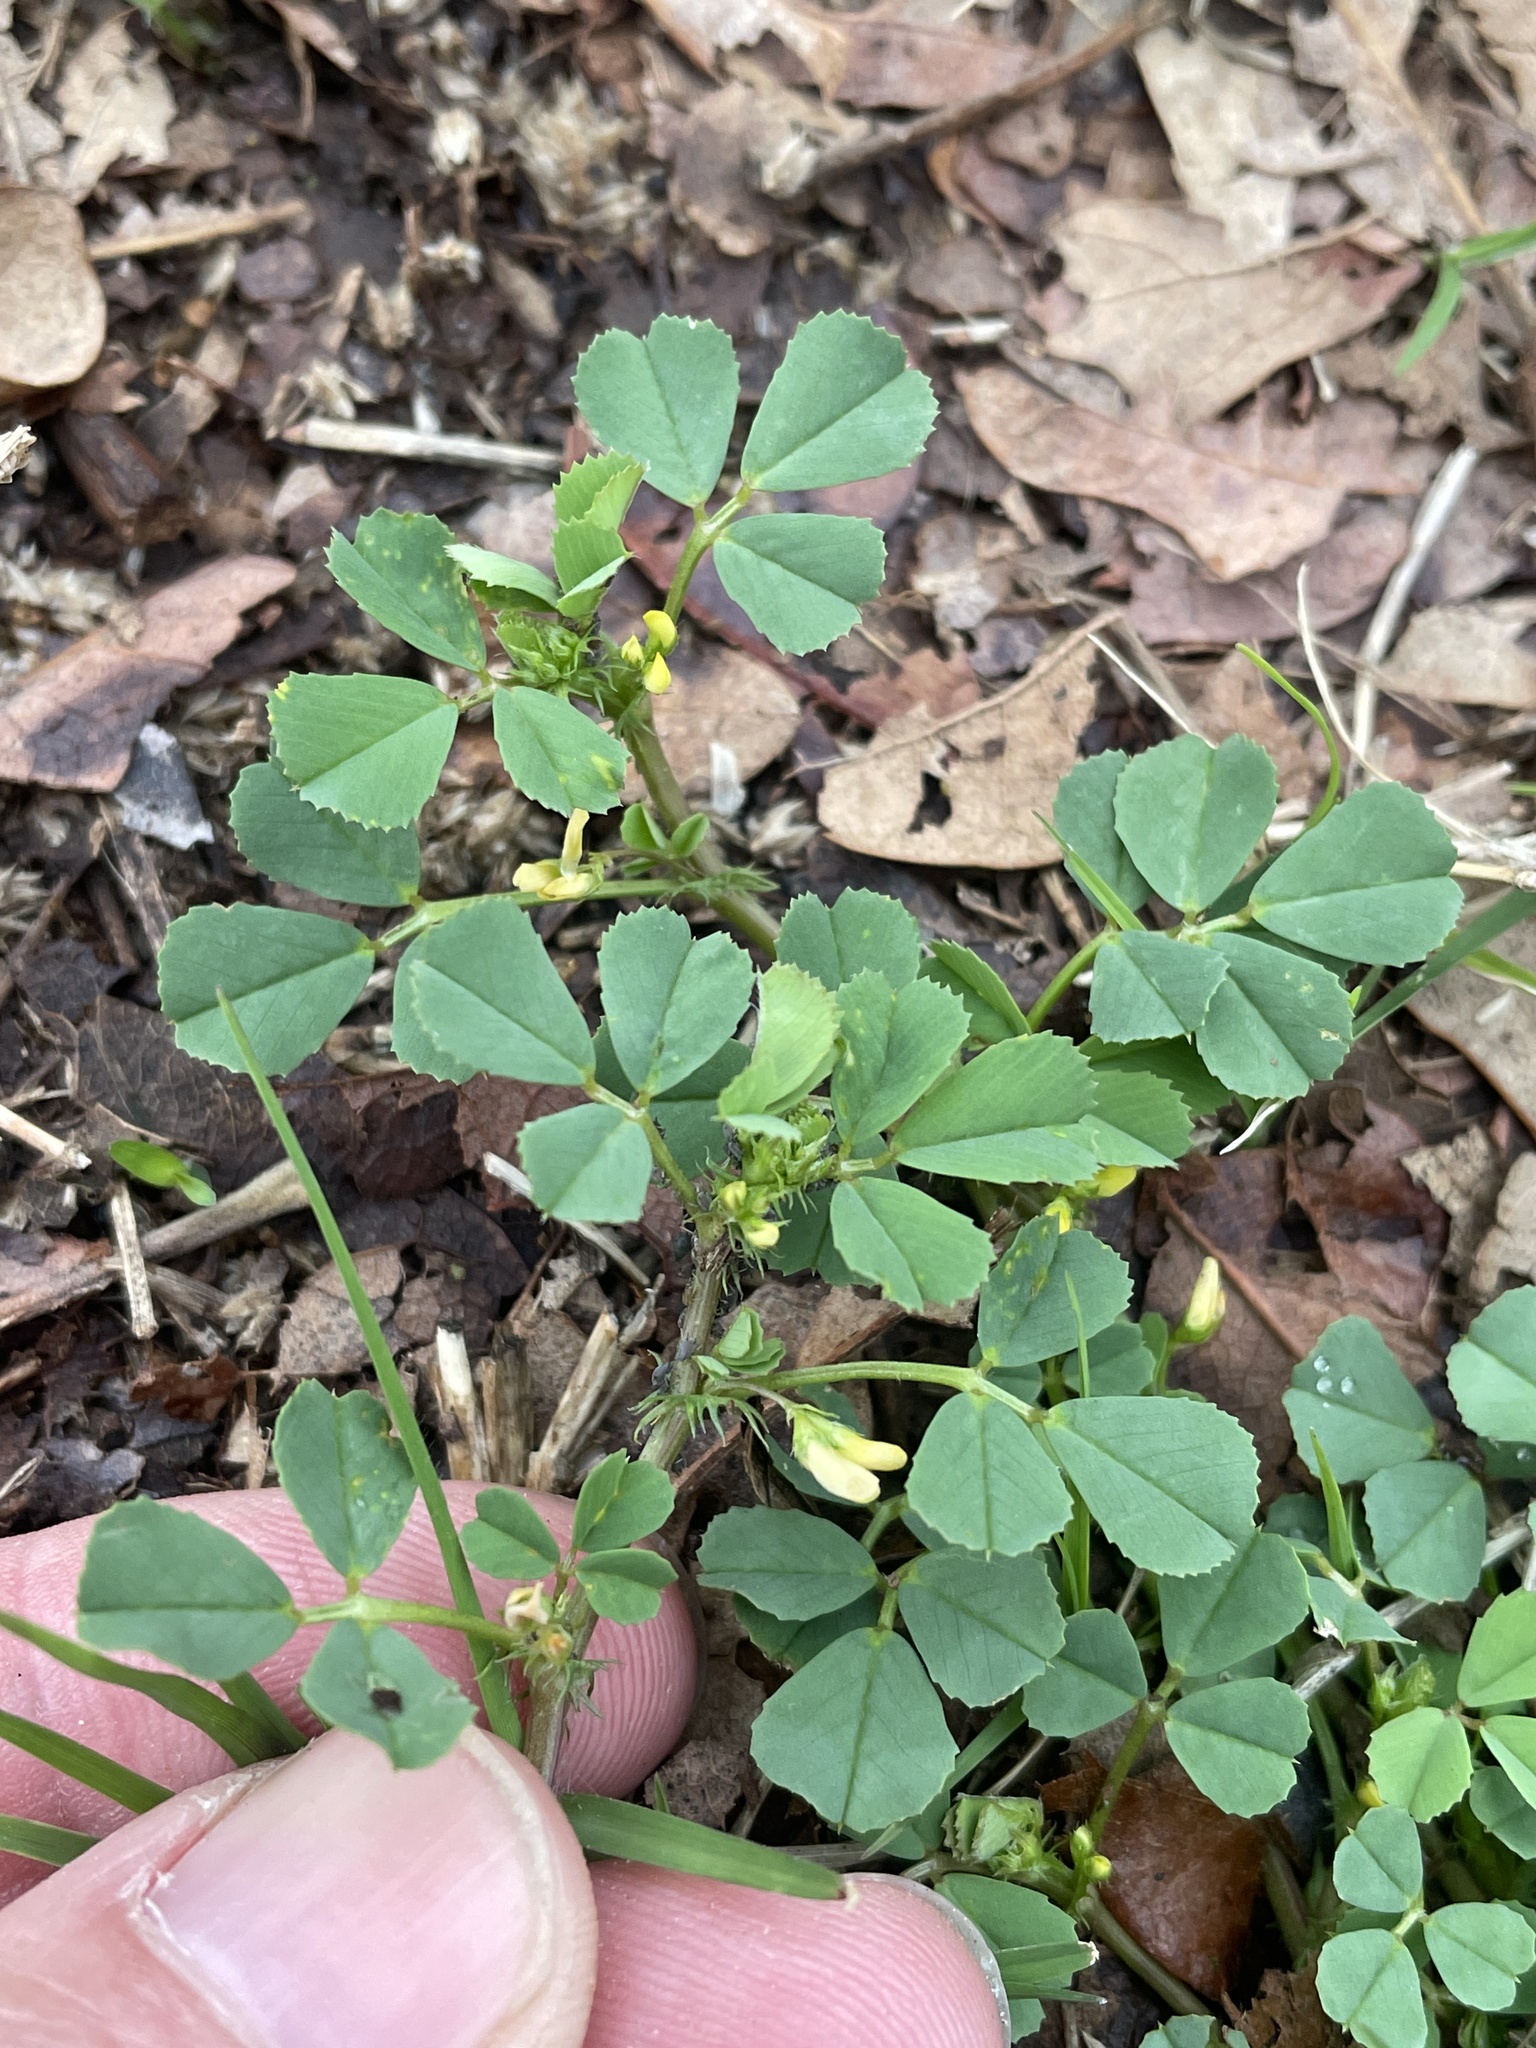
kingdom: Plantae
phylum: Tracheophyta
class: Magnoliopsida
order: Fabales
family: Fabaceae
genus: Medicago
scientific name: Medicago polymorpha
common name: Burclover
